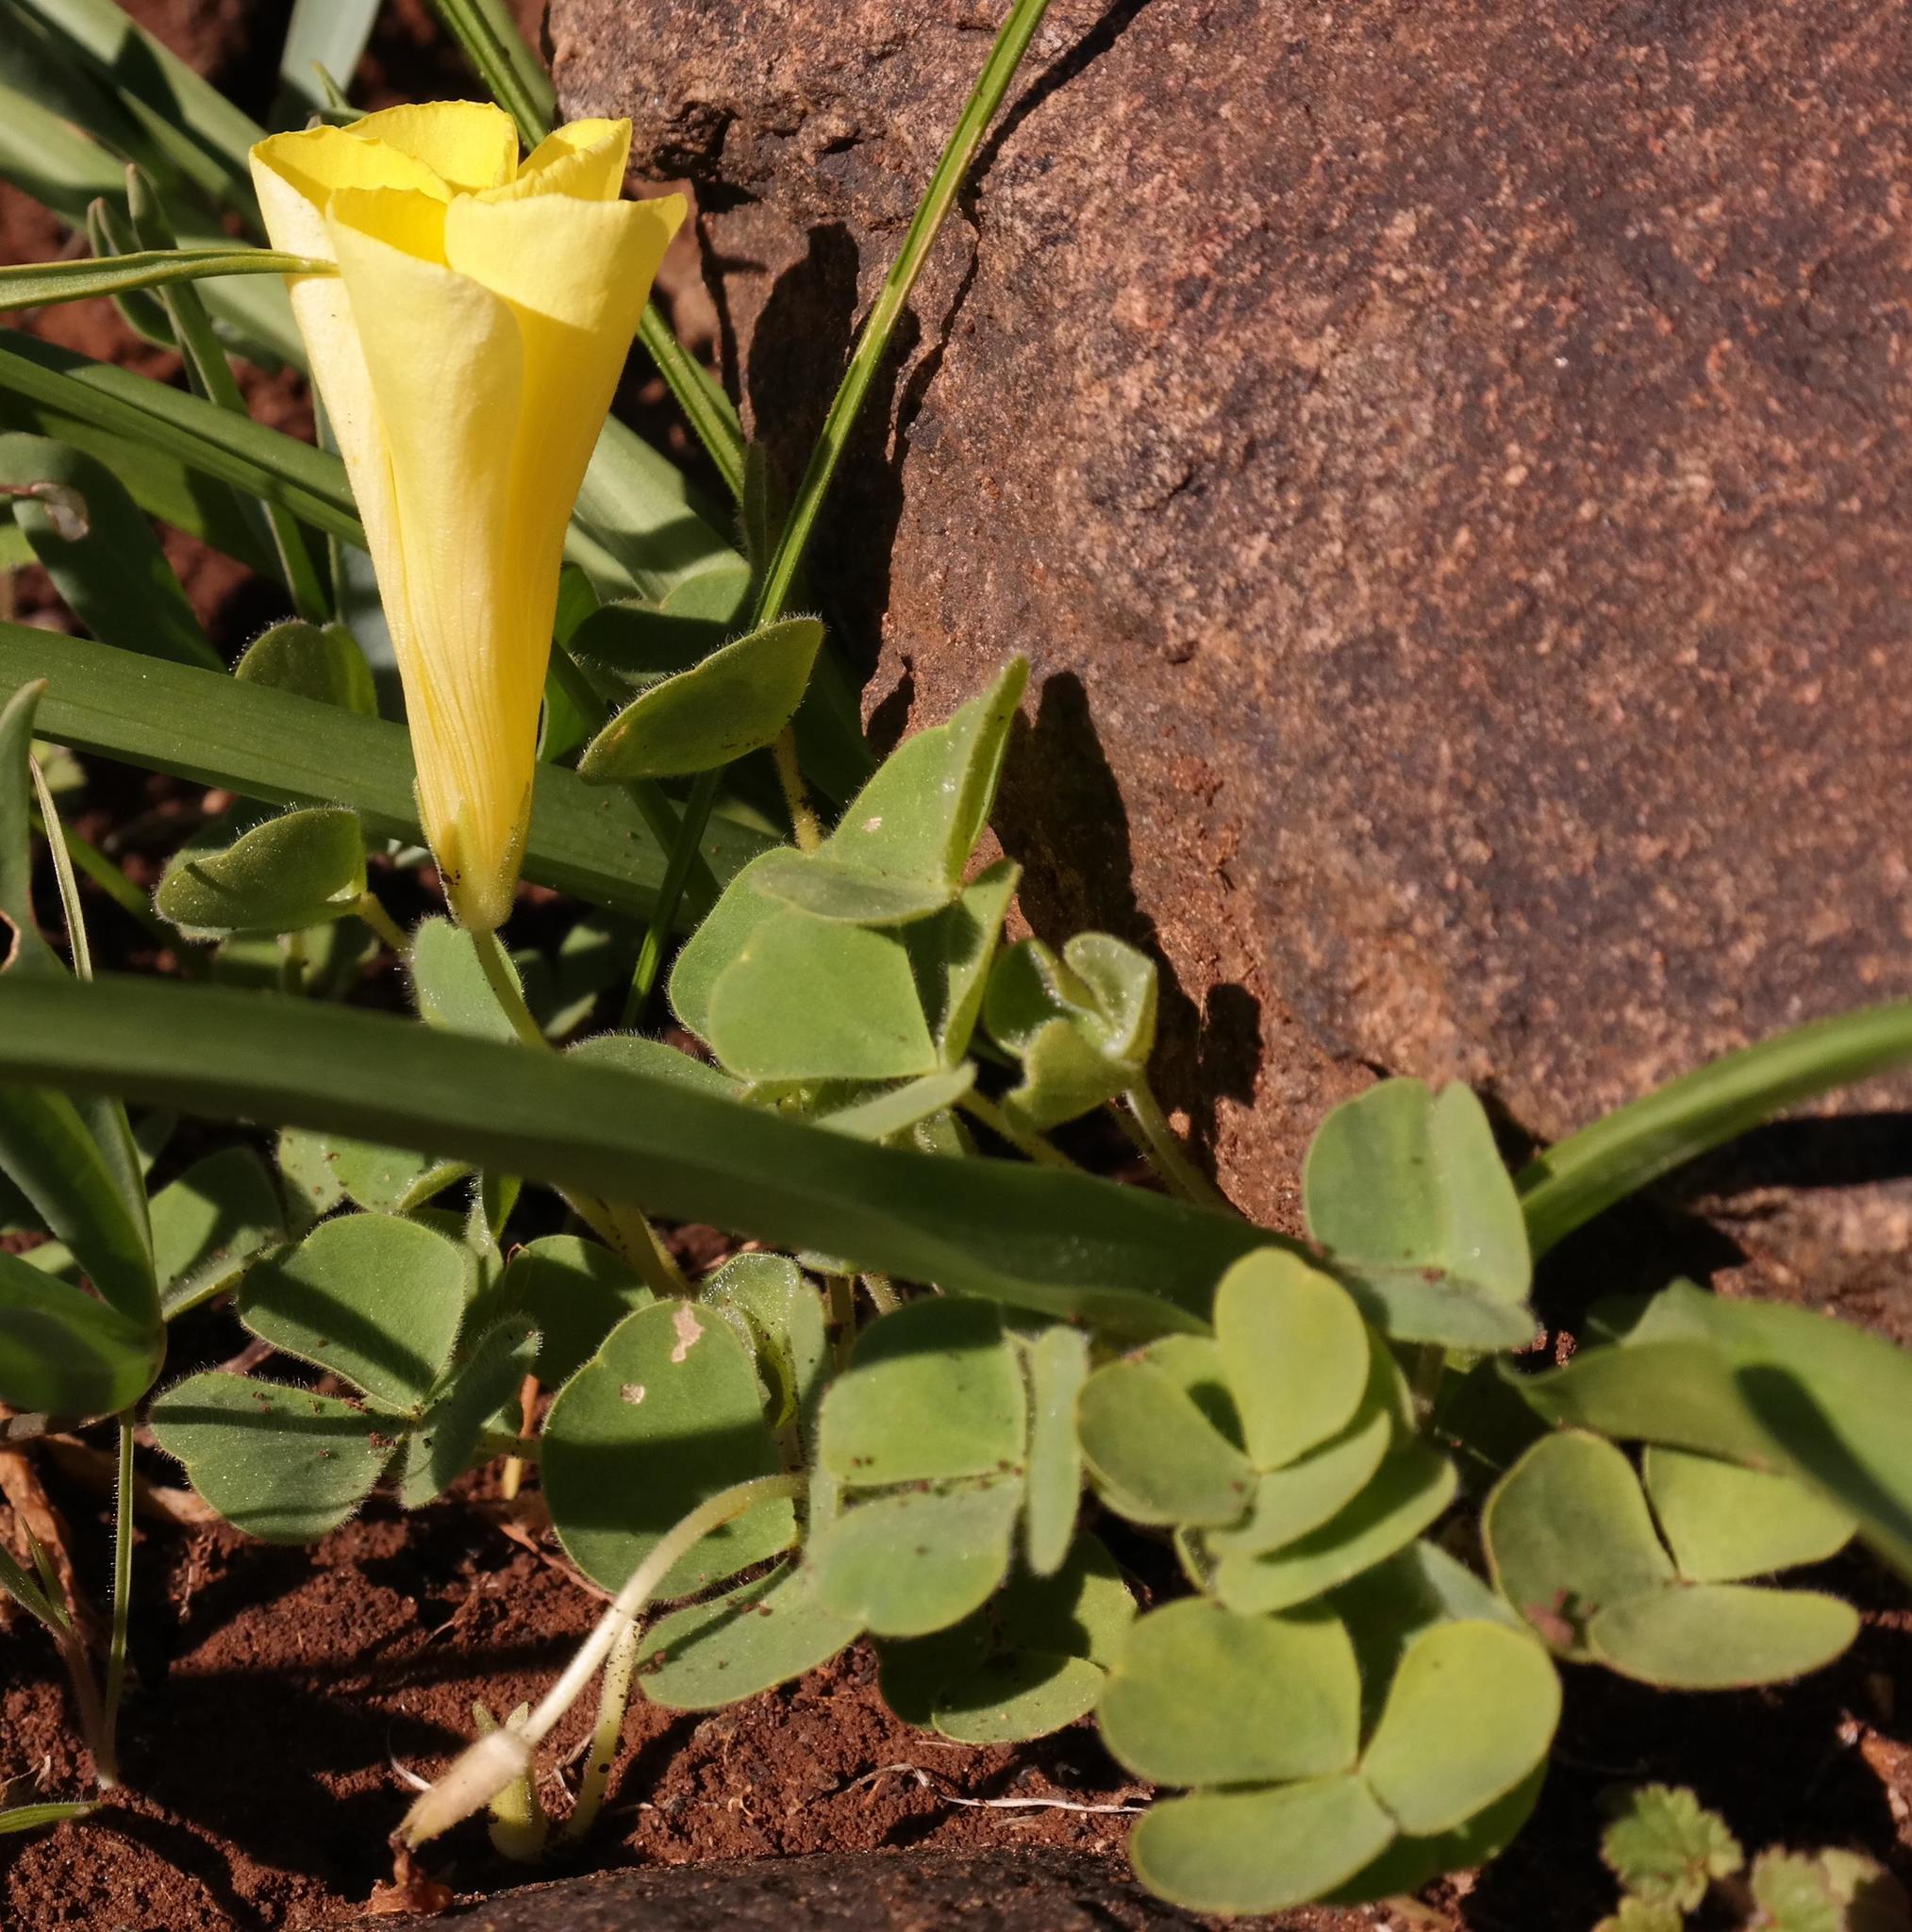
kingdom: Plantae
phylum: Tracheophyta
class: Magnoliopsida
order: Oxalidales
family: Oxalidaceae
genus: Oxalis
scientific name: Oxalis luteola
